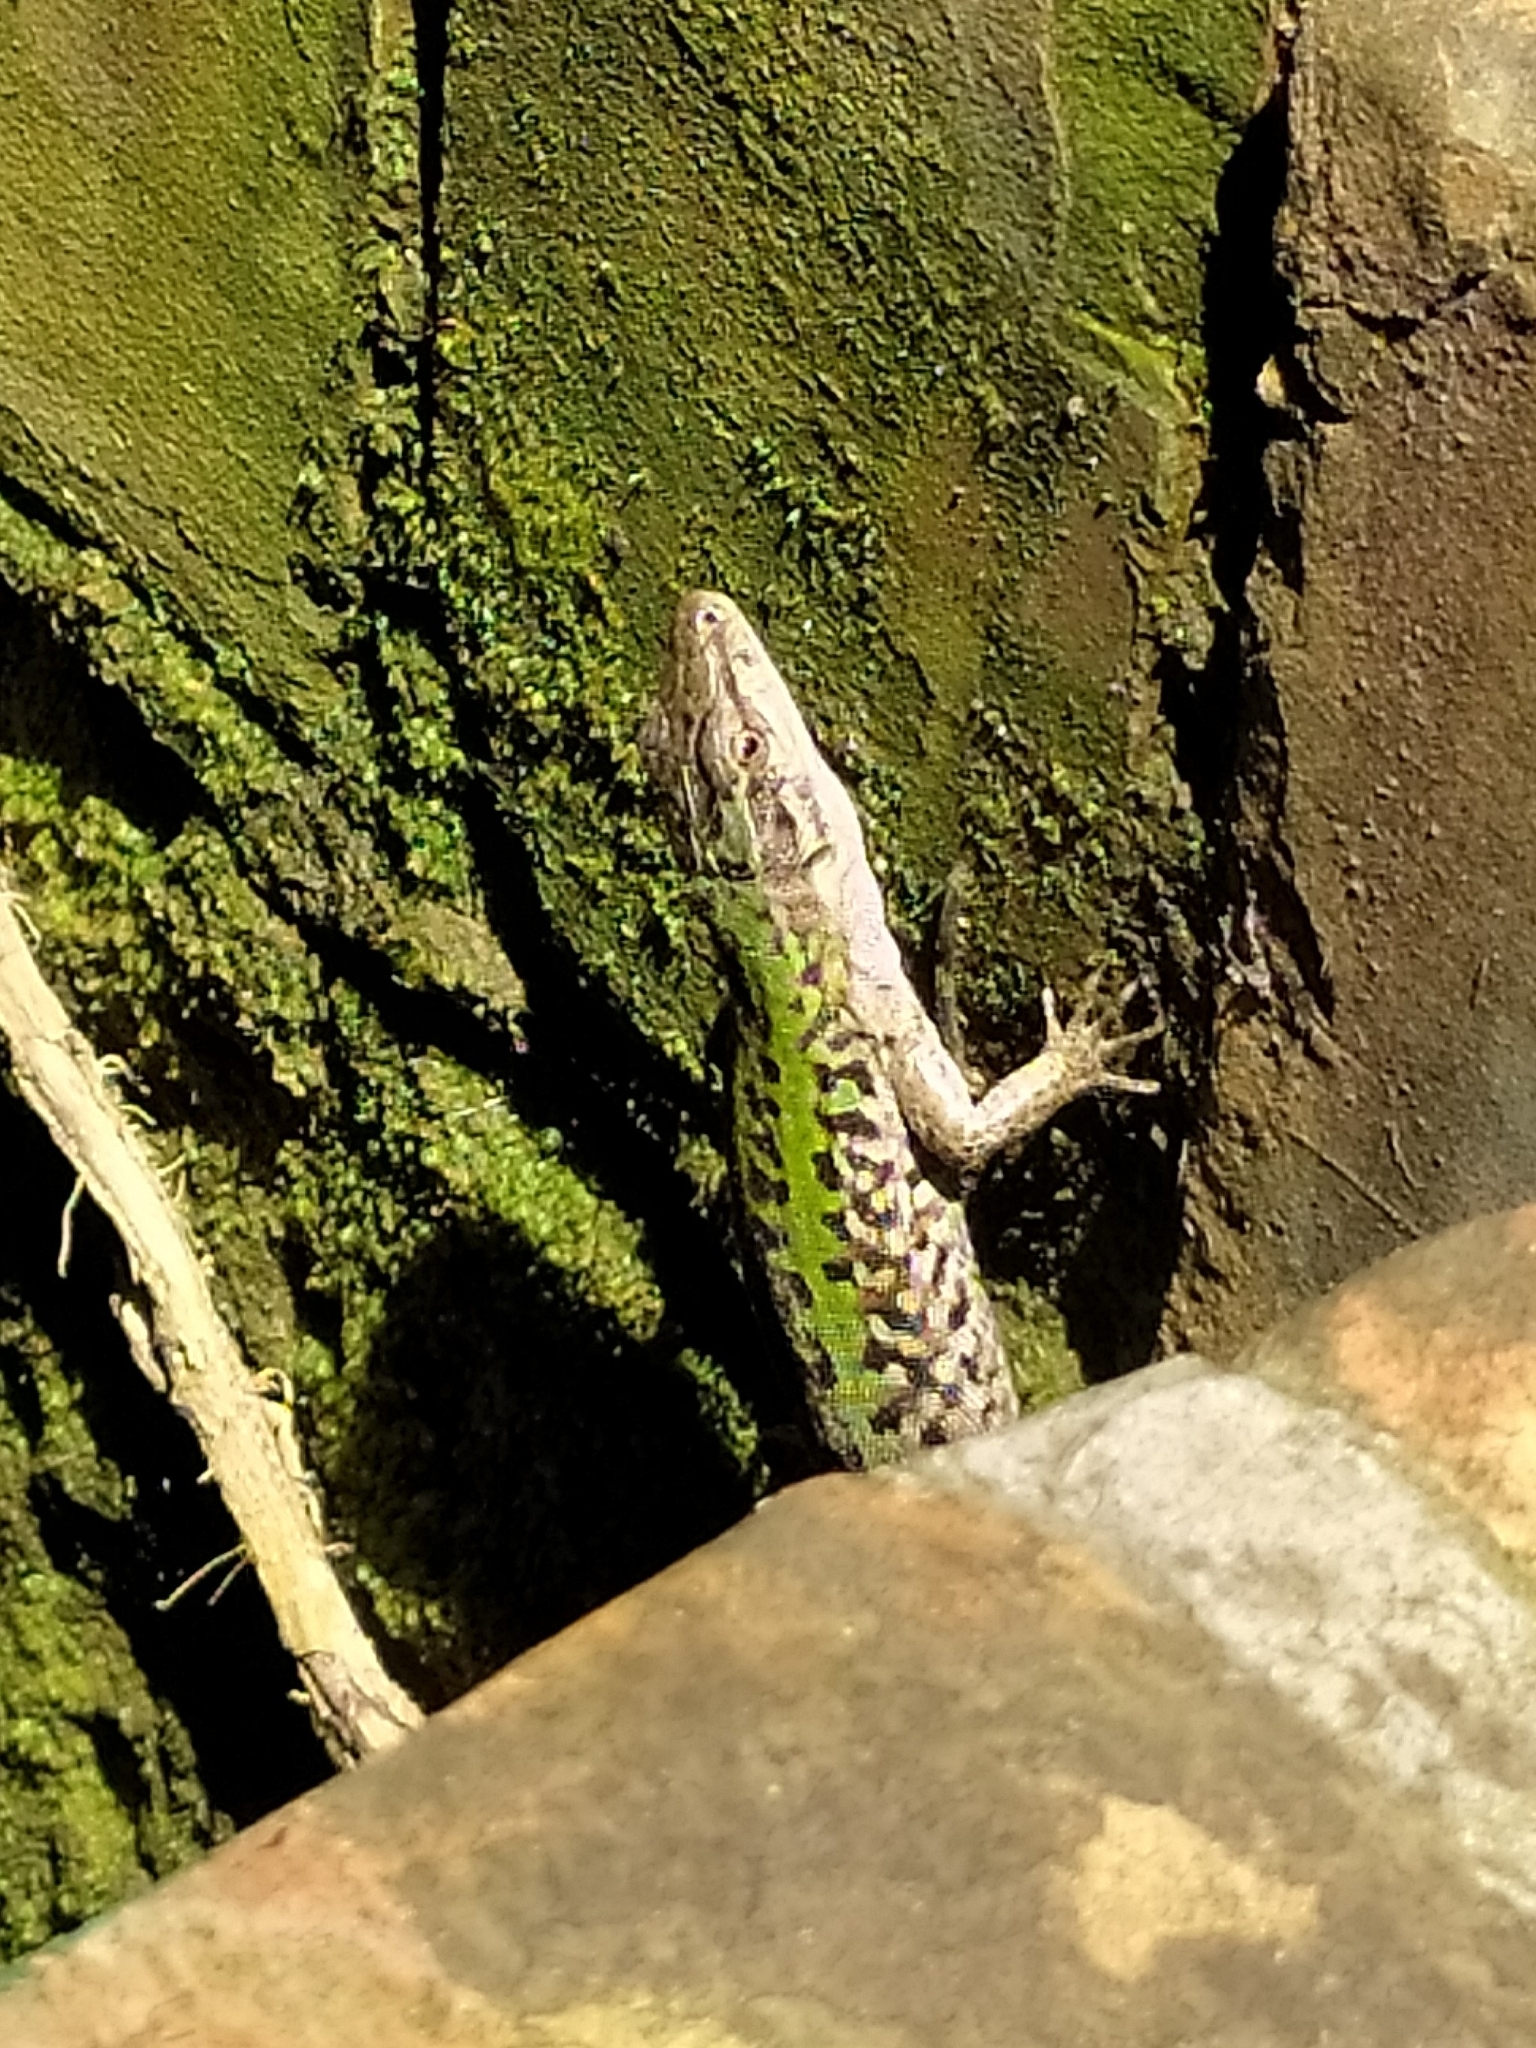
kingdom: Animalia
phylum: Chordata
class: Squamata
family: Lacertidae
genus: Podarcis
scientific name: Podarcis siculus
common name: Italian wall lizard
